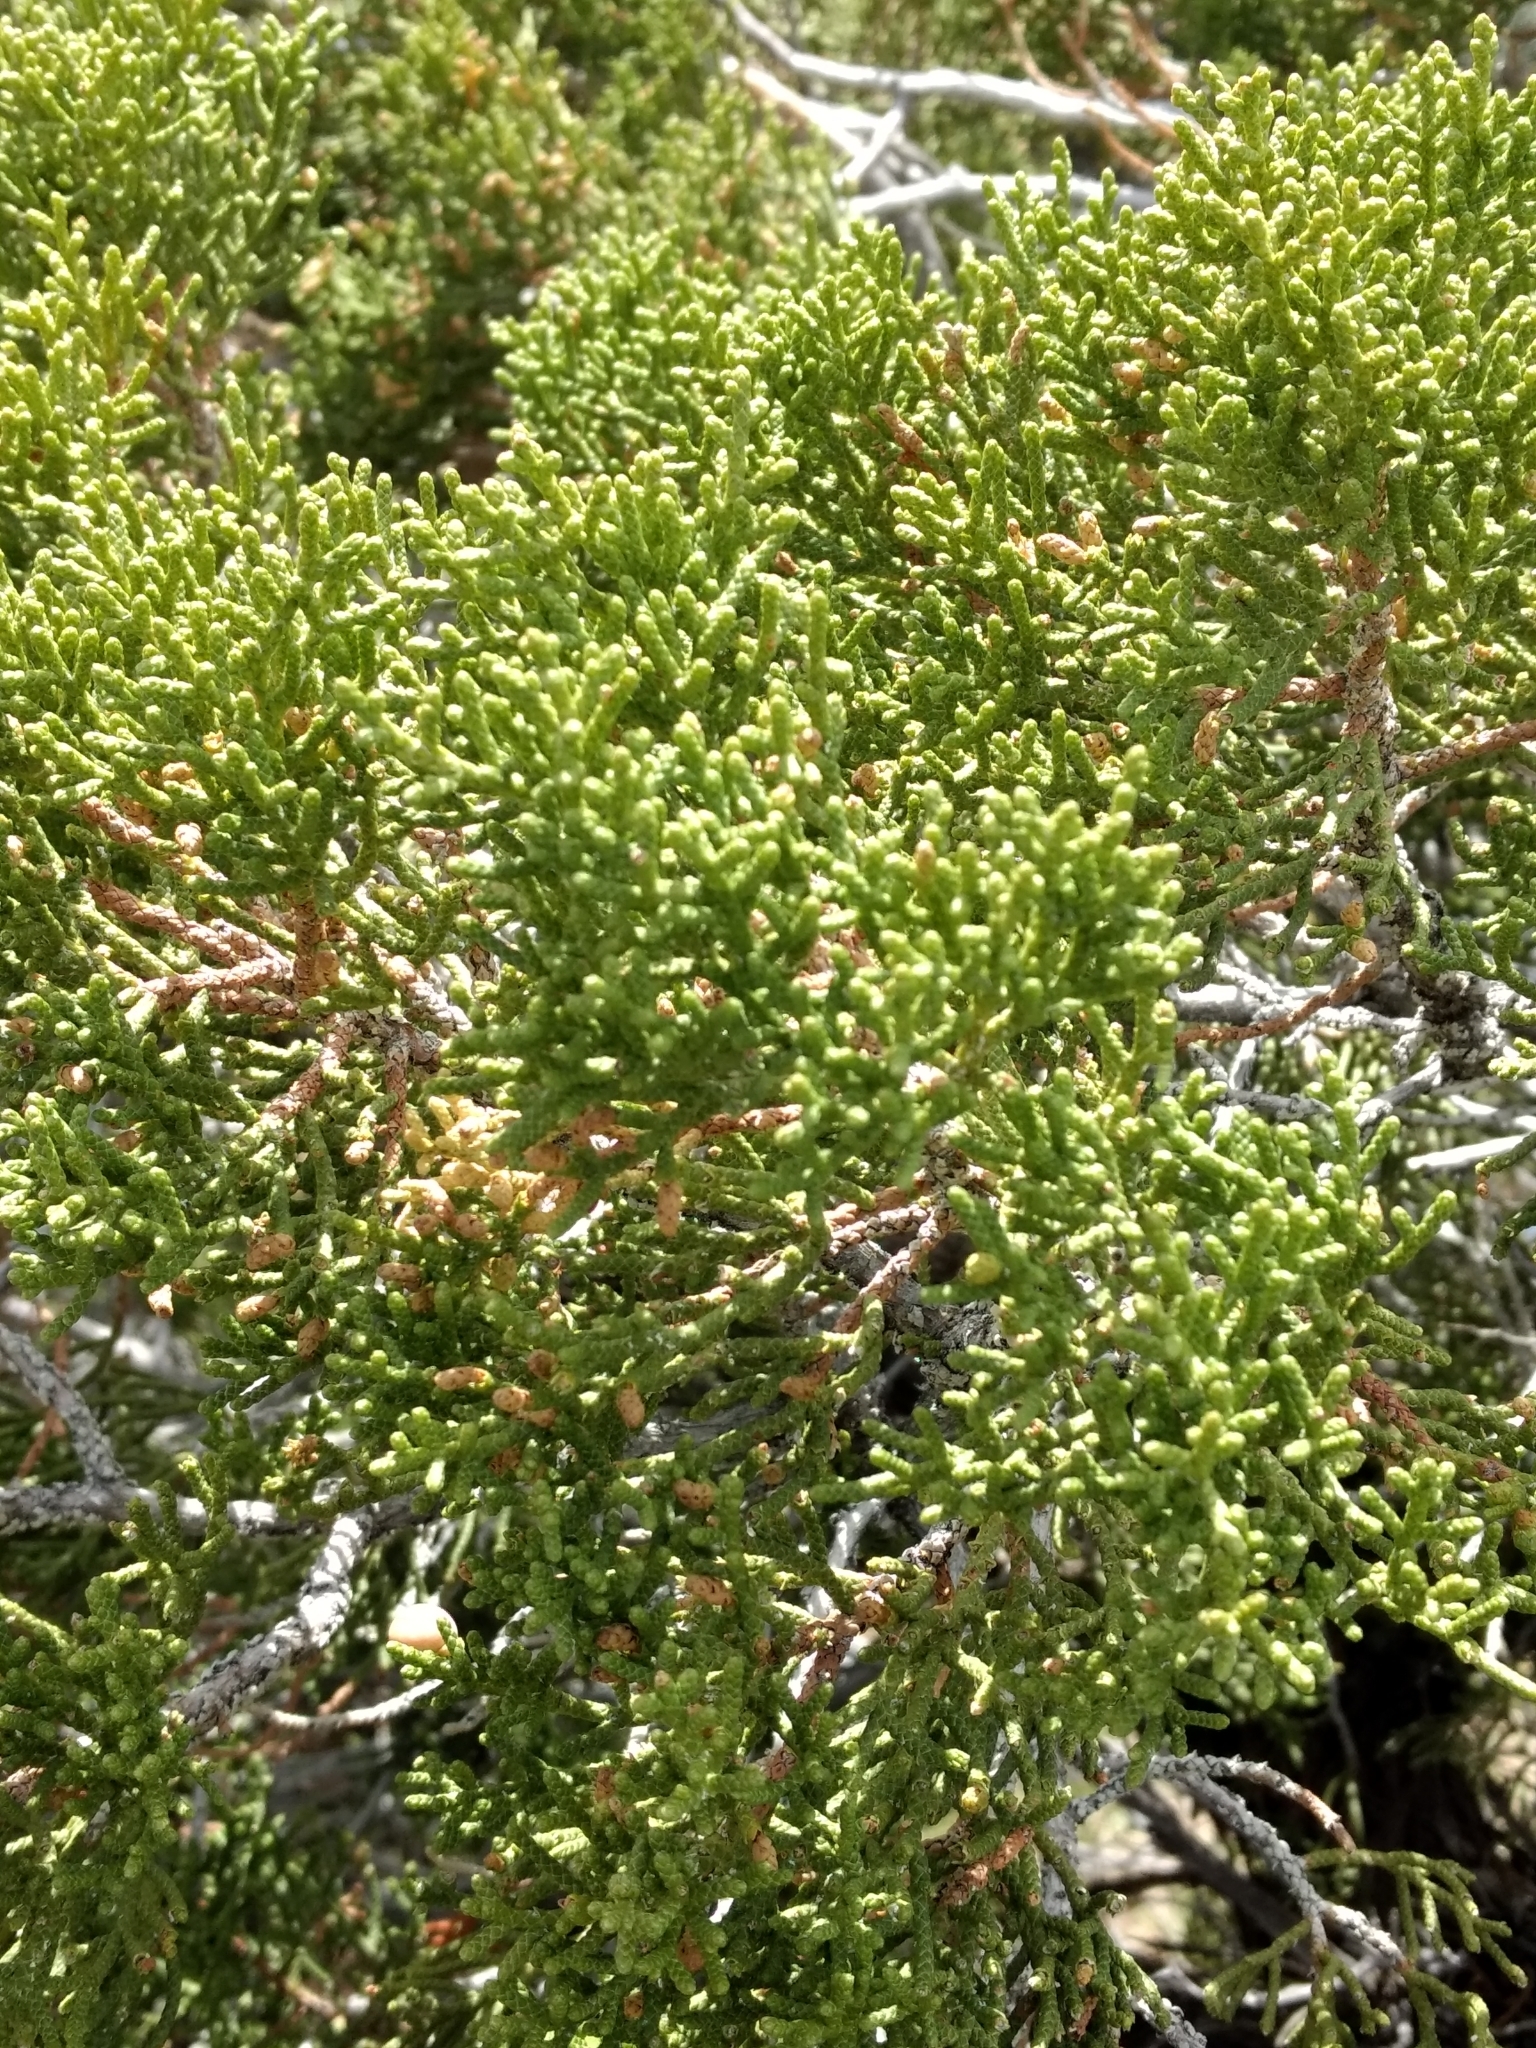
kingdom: Plantae
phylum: Tracheophyta
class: Pinopsida
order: Pinales
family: Cupressaceae
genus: Juniperus
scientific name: Juniperus californica
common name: California juniper
